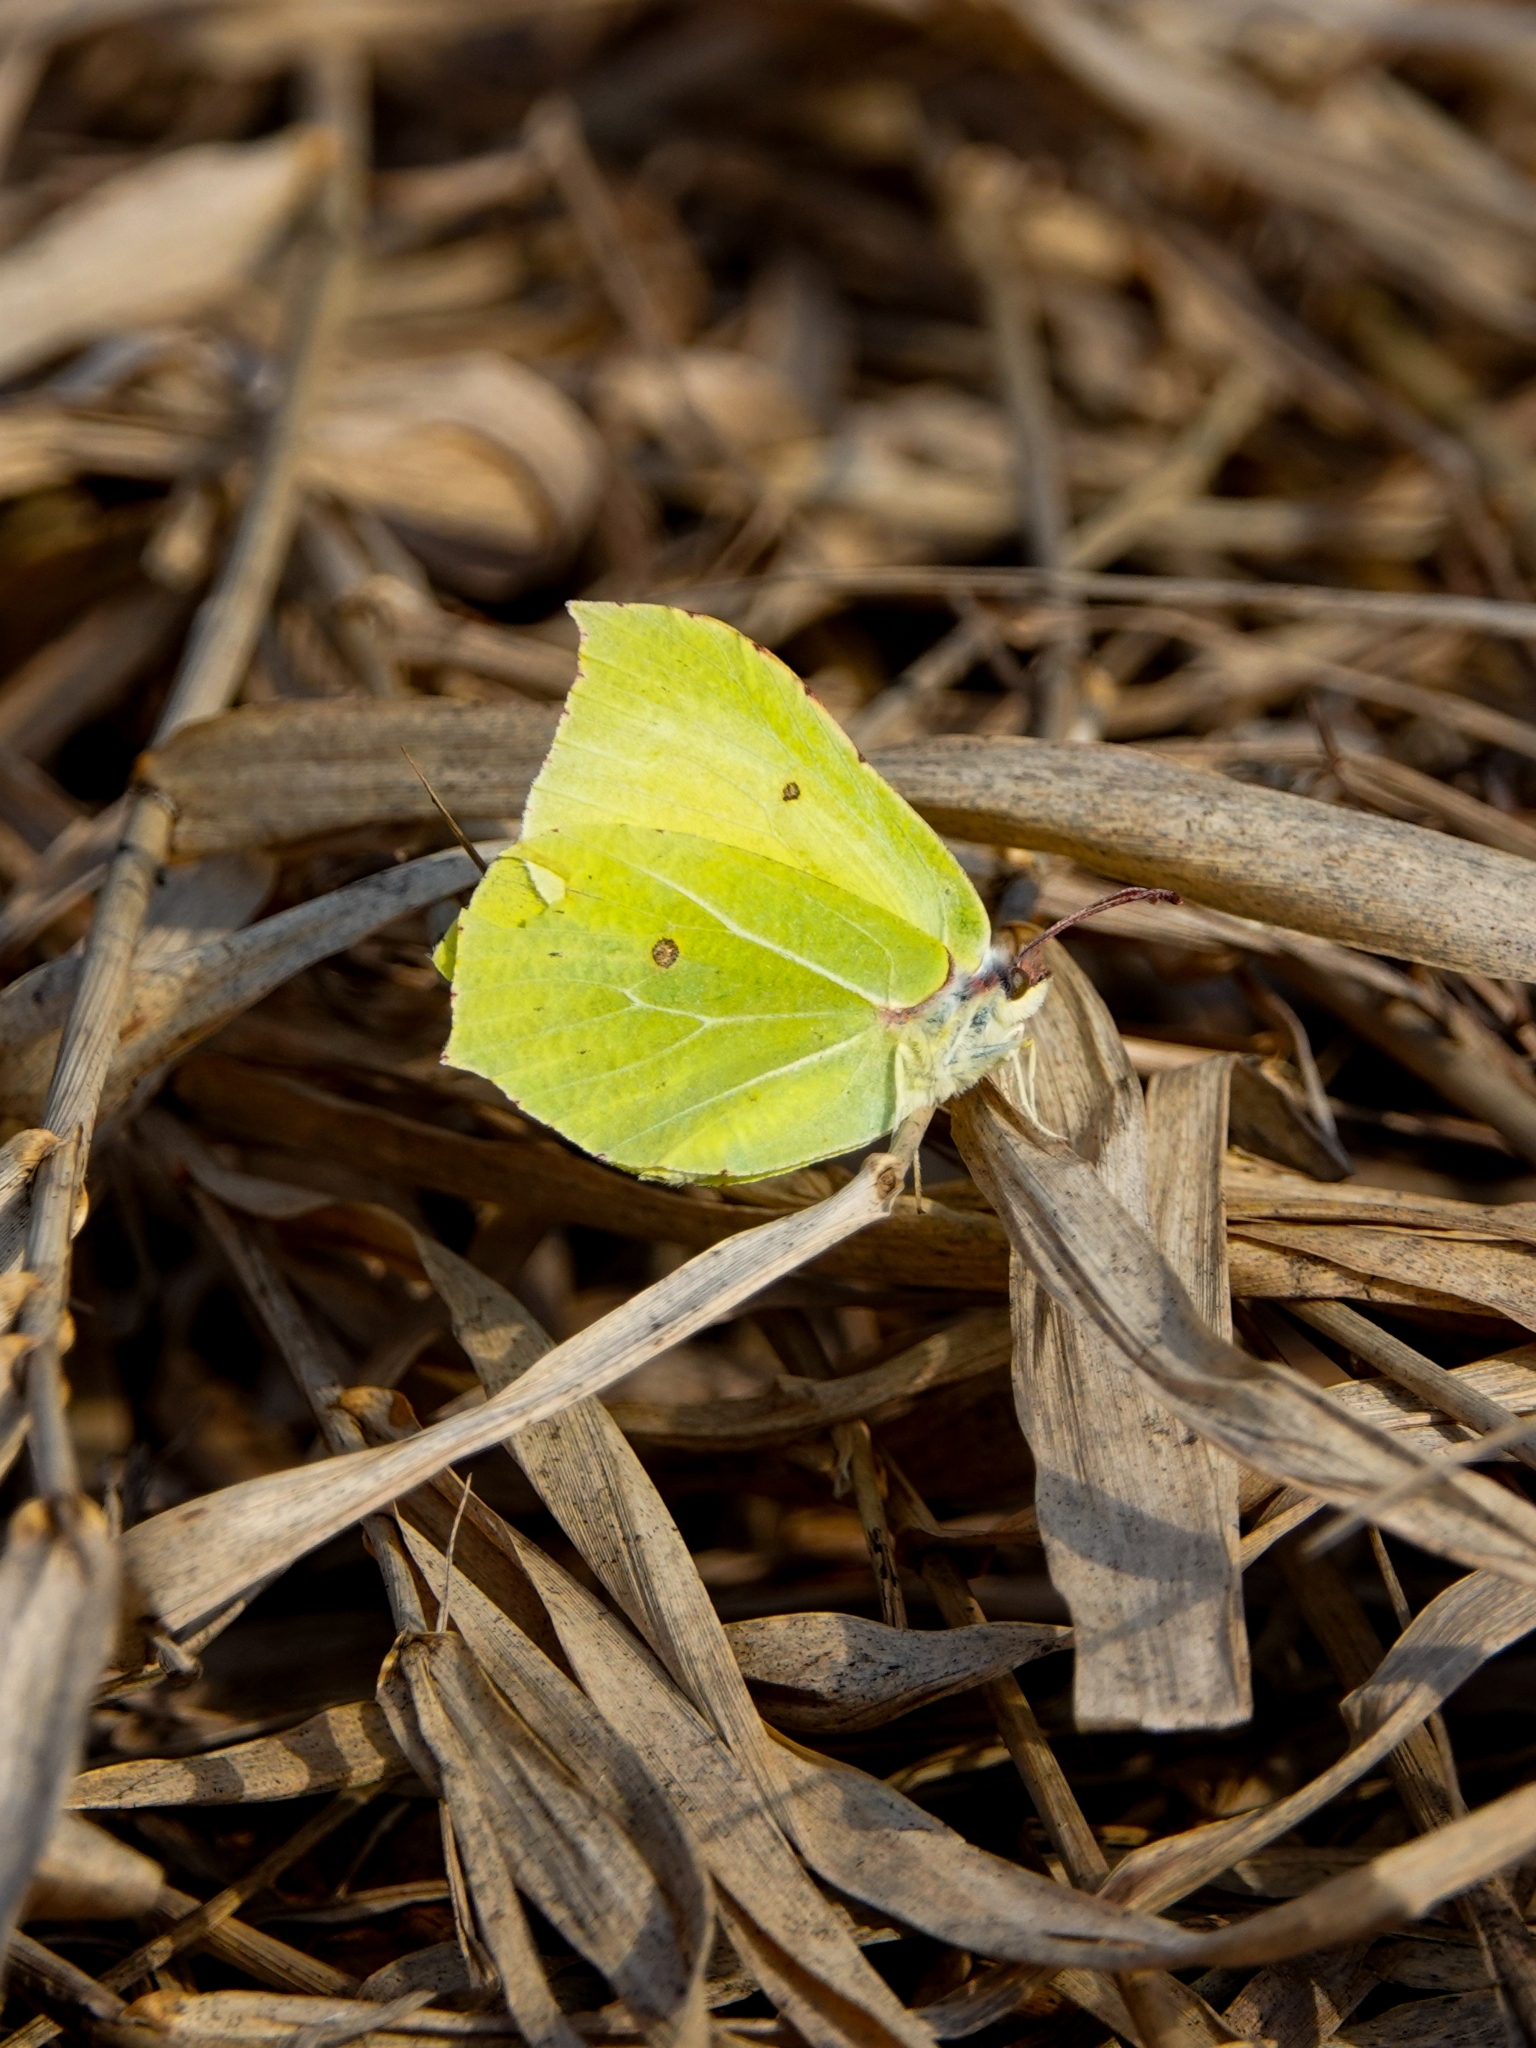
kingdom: Animalia
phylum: Arthropoda
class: Insecta
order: Lepidoptera
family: Pieridae
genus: Gonepteryx
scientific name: Gonepteryx rhamni
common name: Brimstone
